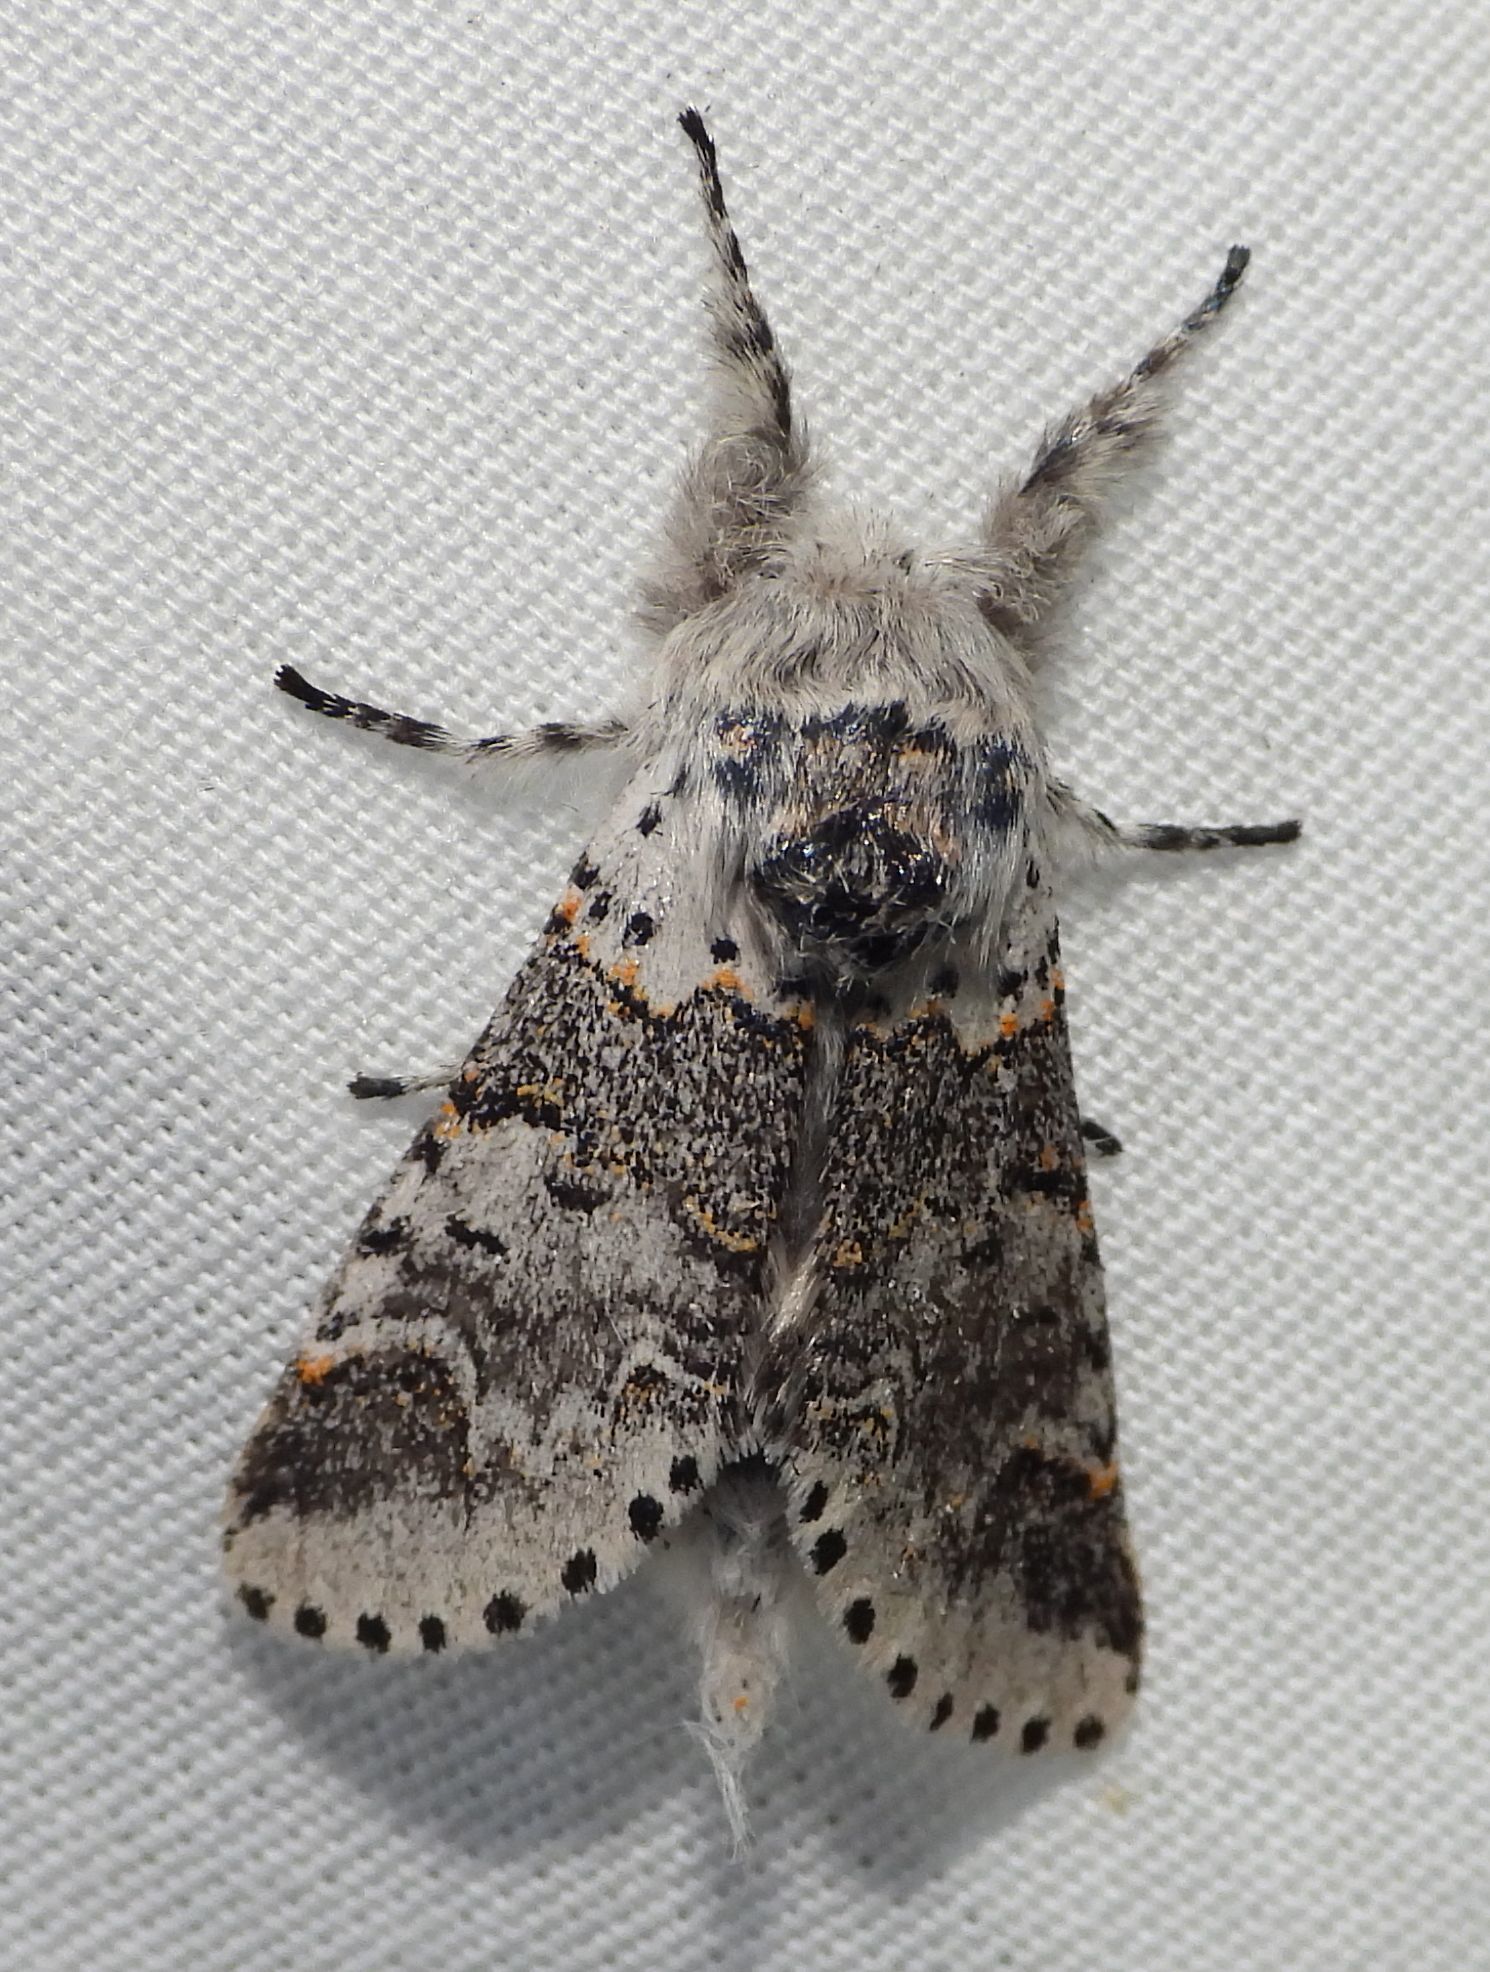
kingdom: Animalia
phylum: Arthropoda
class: Insecta
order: Lepidoptera
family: Notodontidae
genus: Furcula
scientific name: Furcula occidentalis
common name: Western furcula moth
